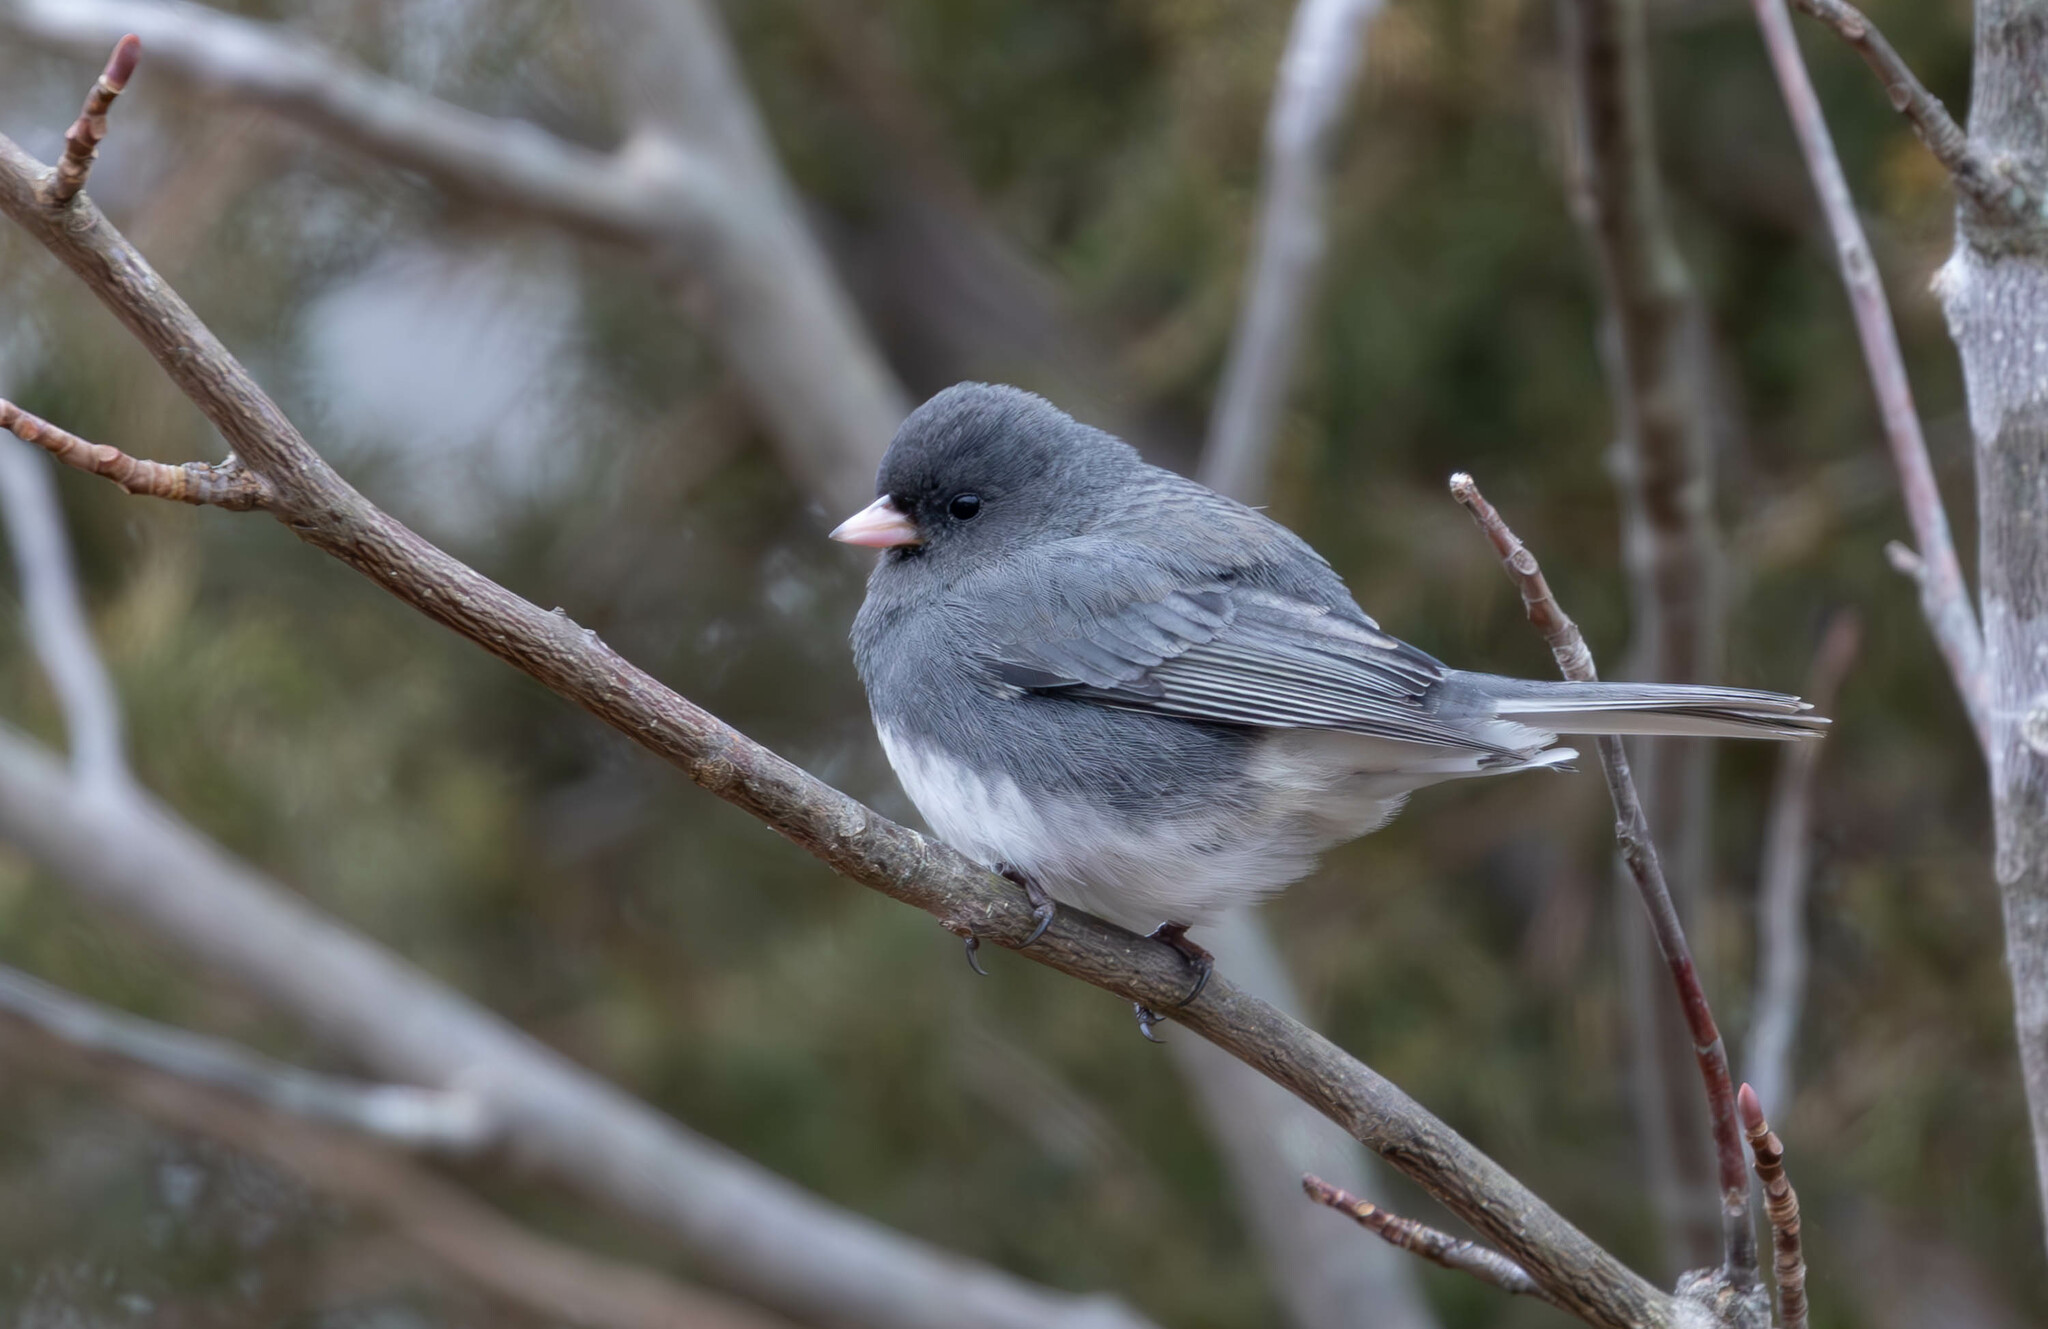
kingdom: Animalia
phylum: Chordata
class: Aves
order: Passeriformes
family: Passerellidae
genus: Junco
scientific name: Junco hyemalis
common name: Dark-eyed junco
